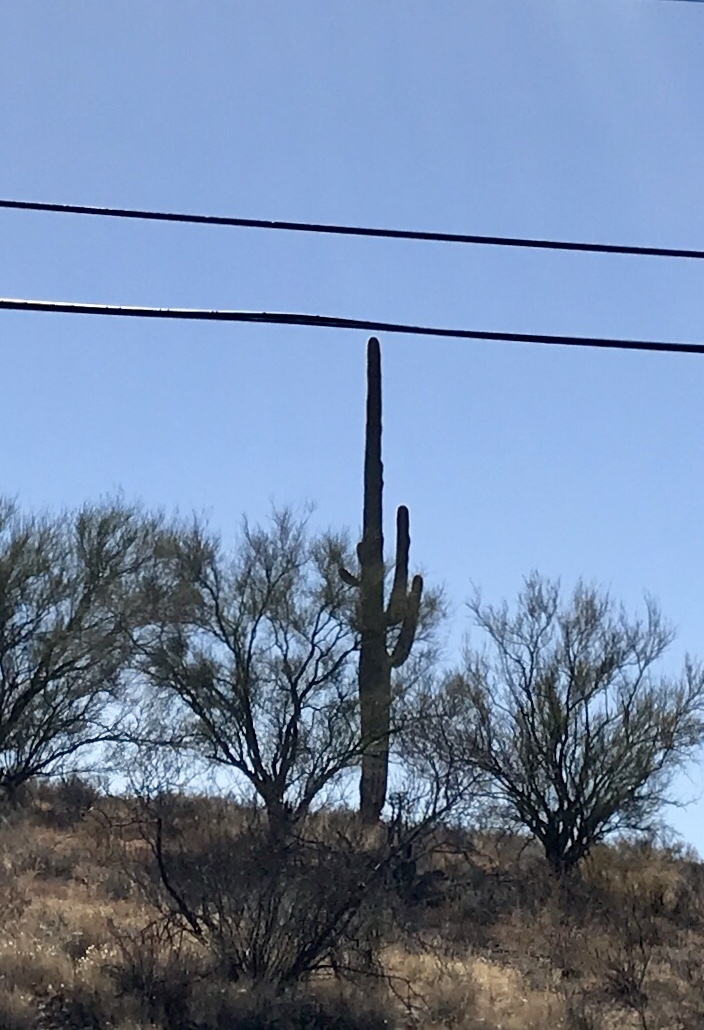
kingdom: Plantae
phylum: Tracheophyta
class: Magnoliopsida
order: Caryophyllales
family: Cactaceae
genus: Carnegiea
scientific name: Carnegiea gigantea
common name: Saguaro
